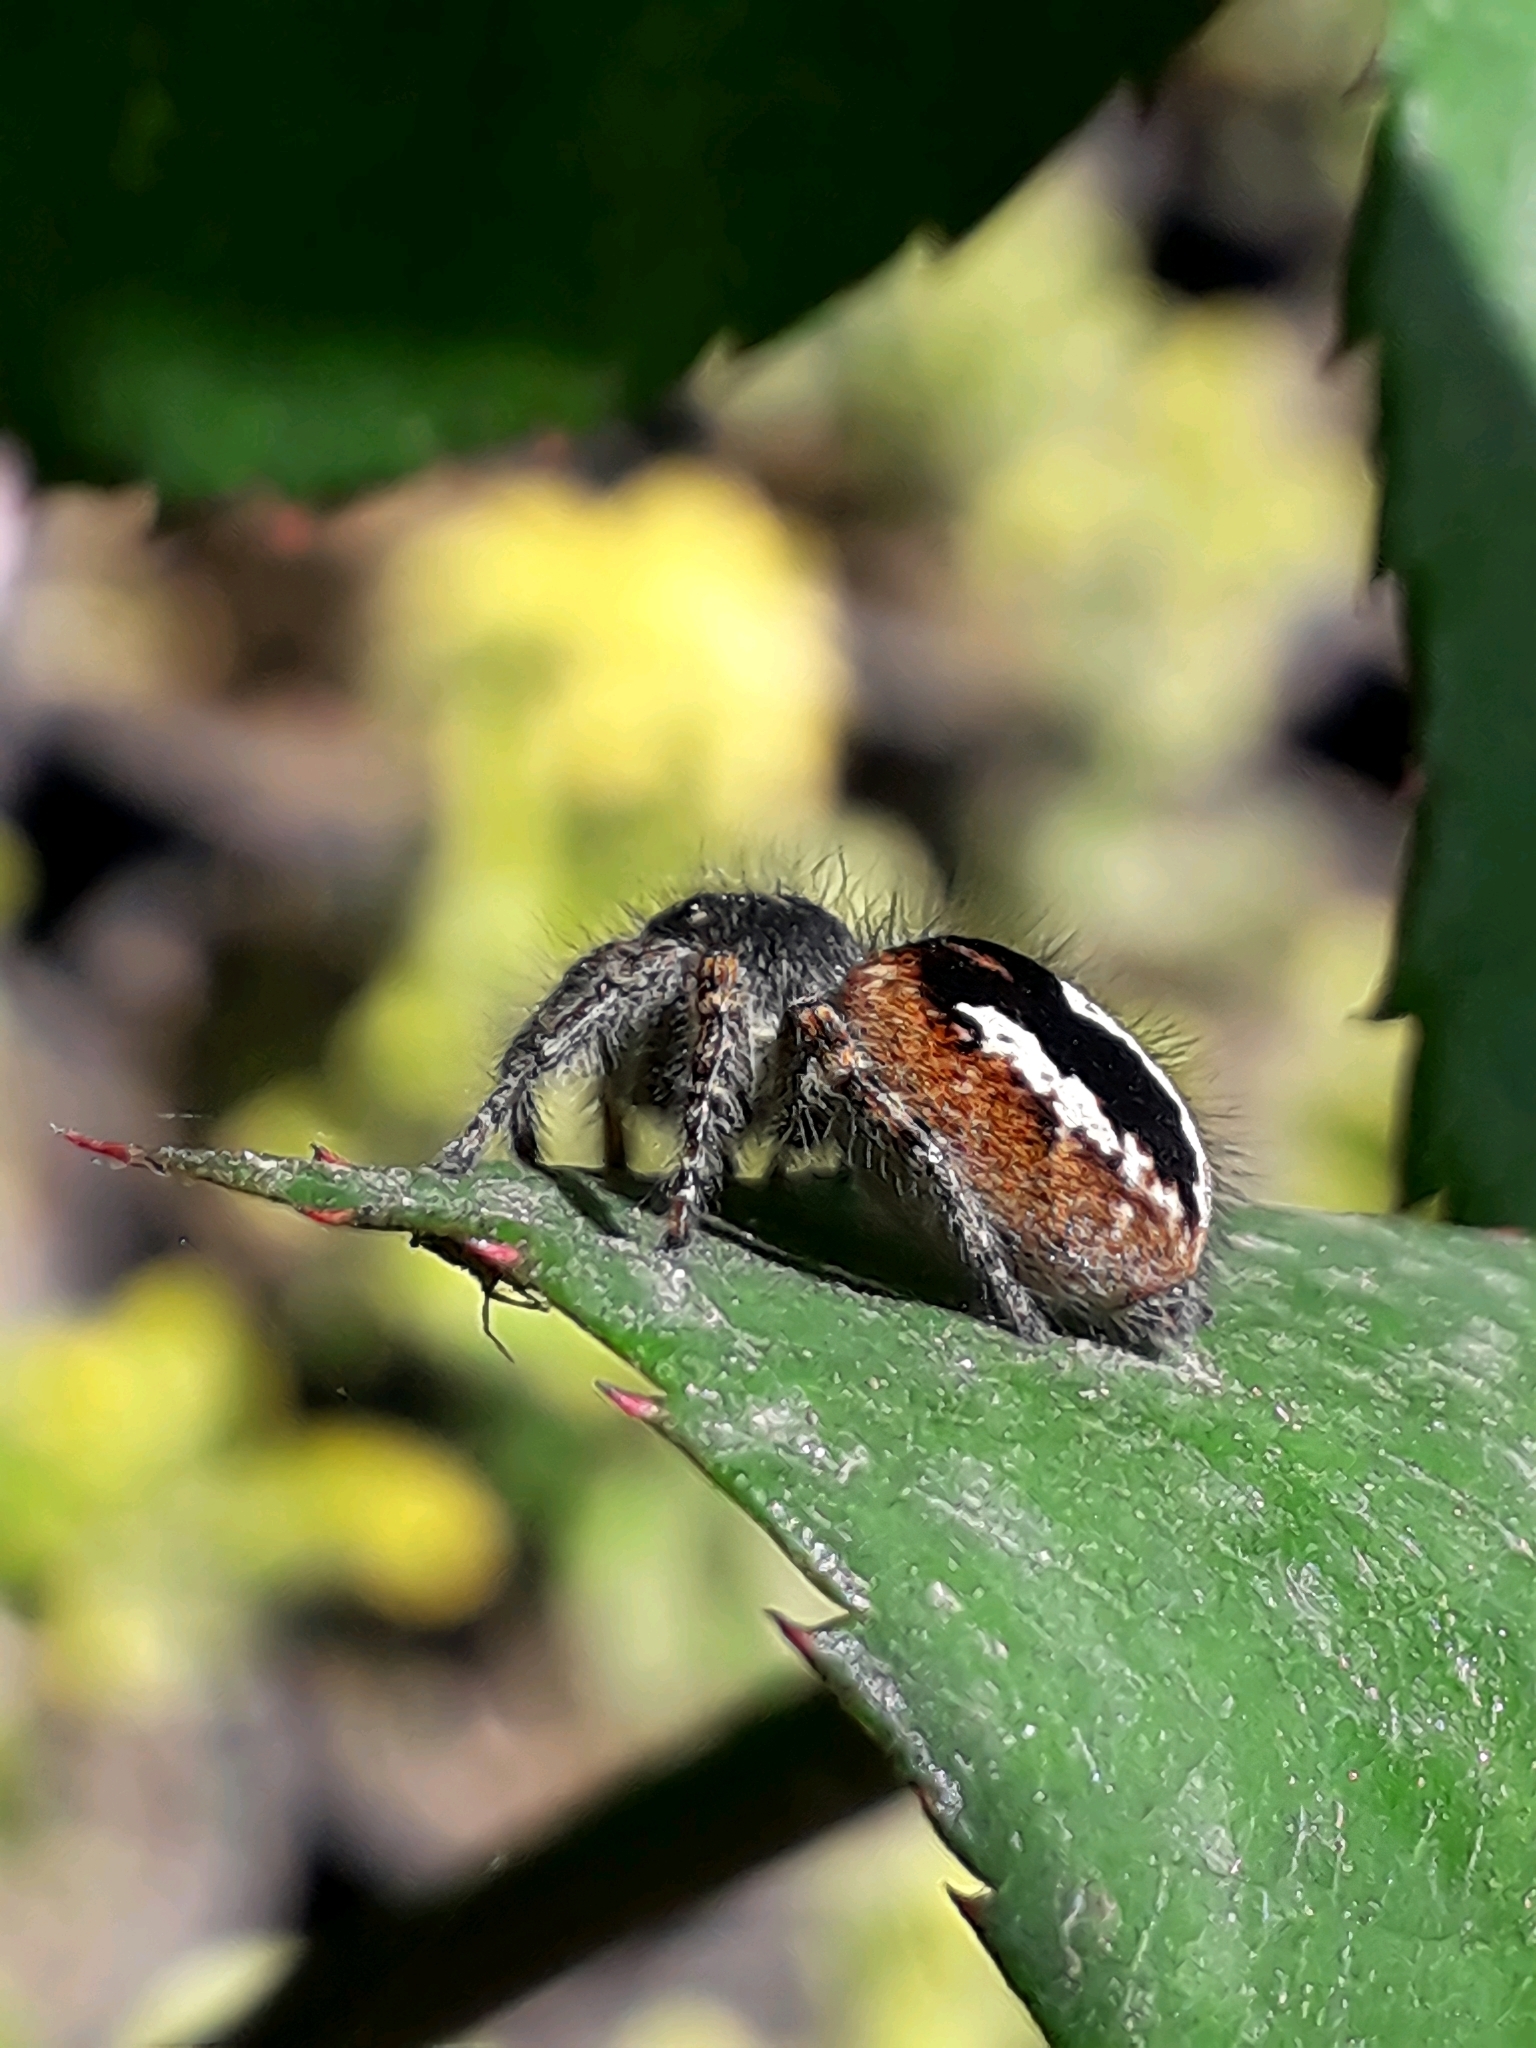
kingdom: Animalia
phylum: Arthropoda
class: Arachnida
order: Araneae
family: Salticidae
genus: Philaeus
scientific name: Philaeus chrysops
